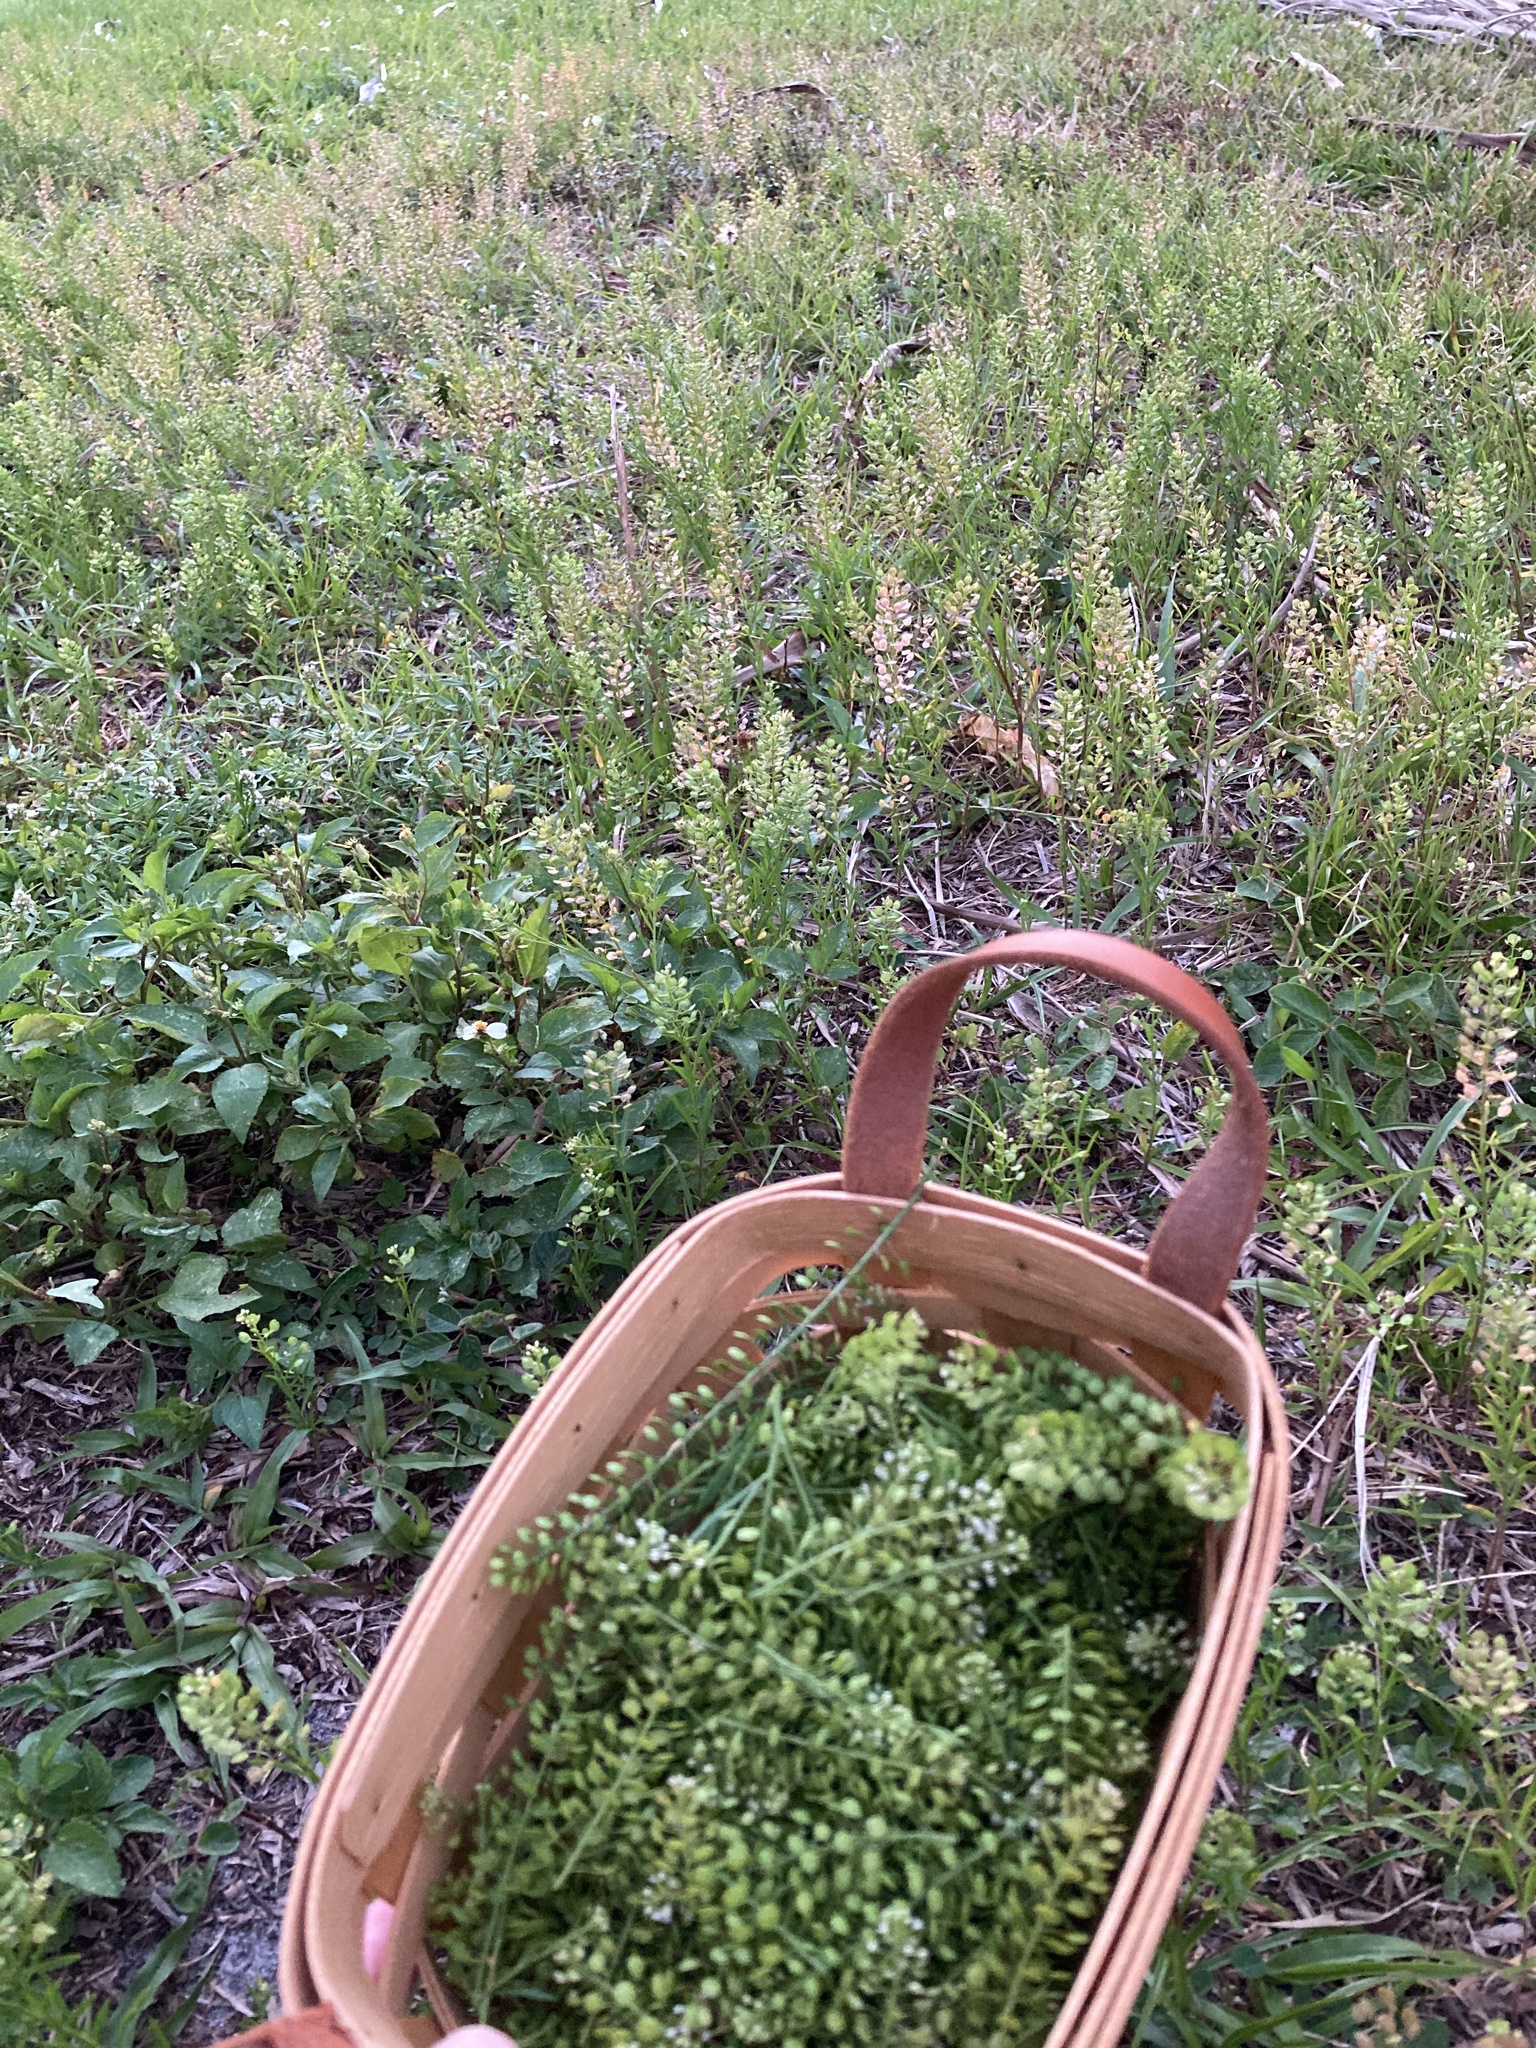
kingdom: Plantae
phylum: Tracheophyta
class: Magnoliopsida
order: Brassicales
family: Brassicaceae
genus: Lepidium
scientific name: Lepidium virginicum
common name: Least pepperwort
